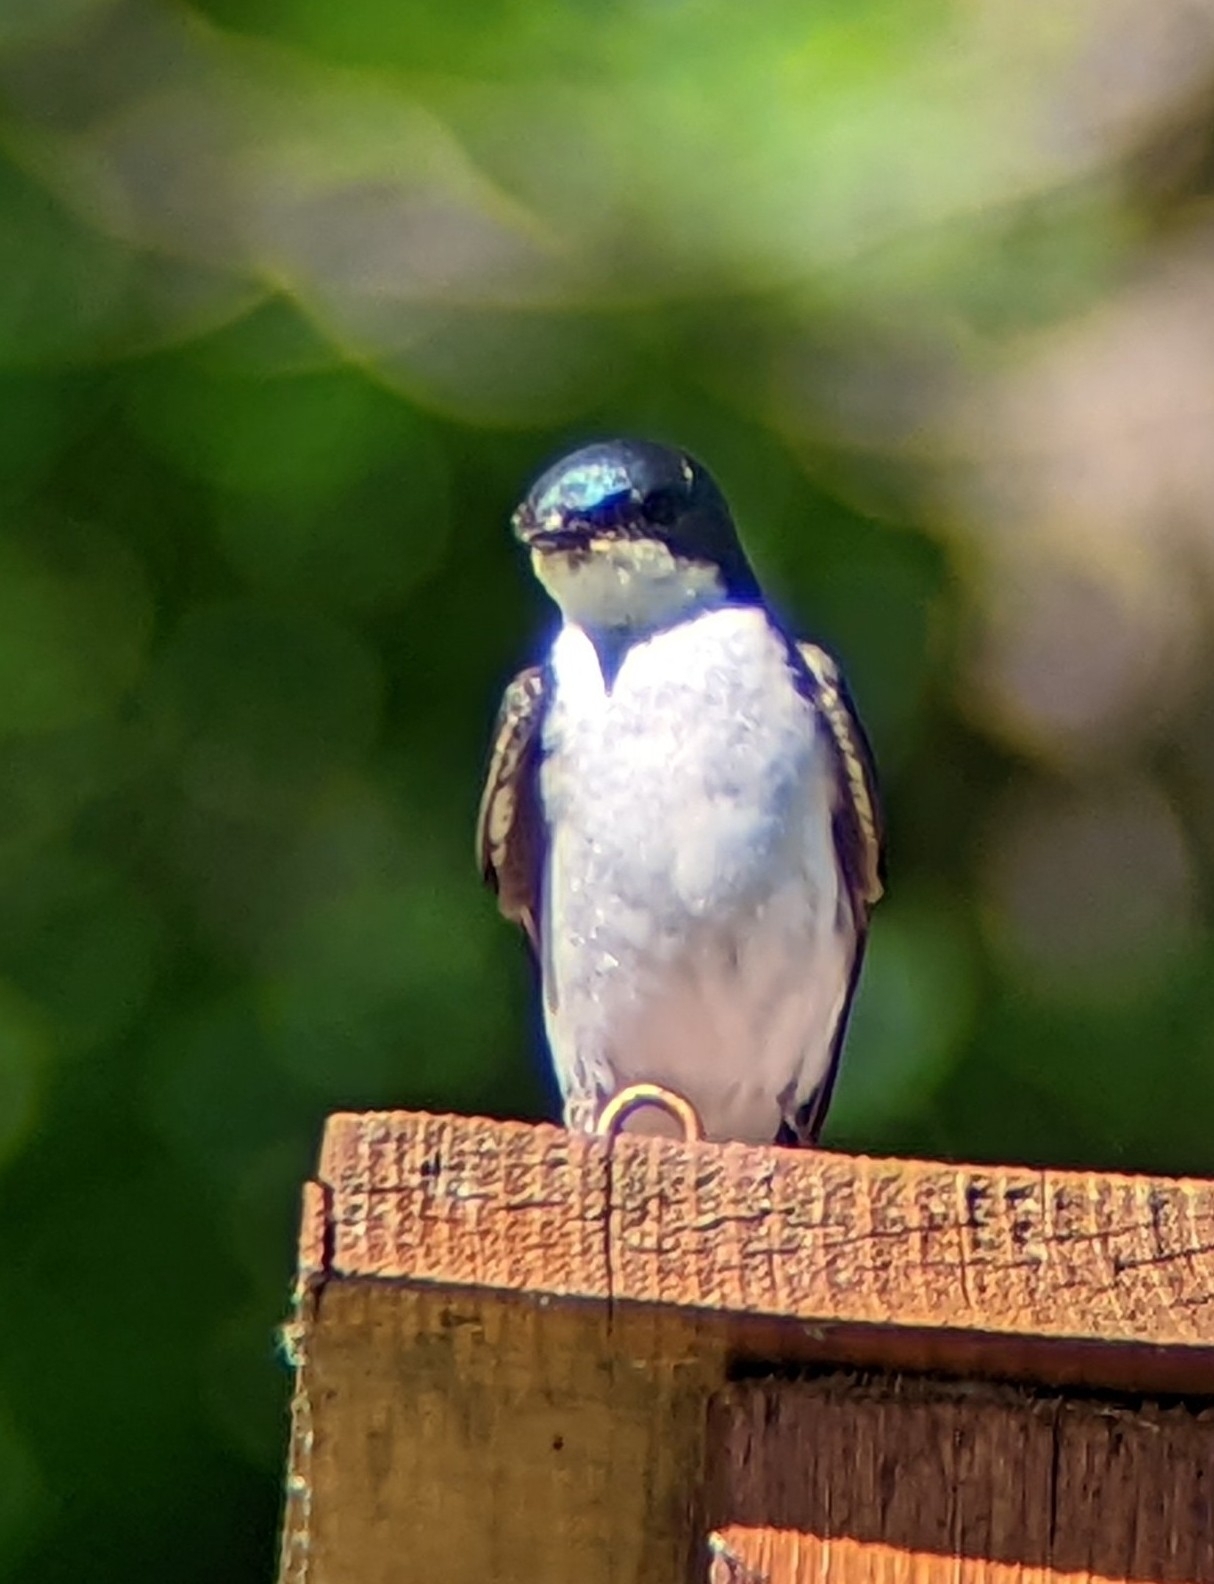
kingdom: Animalia
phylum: Chordata
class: Aves
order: Passeriformes
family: Hirundinidae
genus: Tachycineta
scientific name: Tachycineta bicolor
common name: Tree swallow
